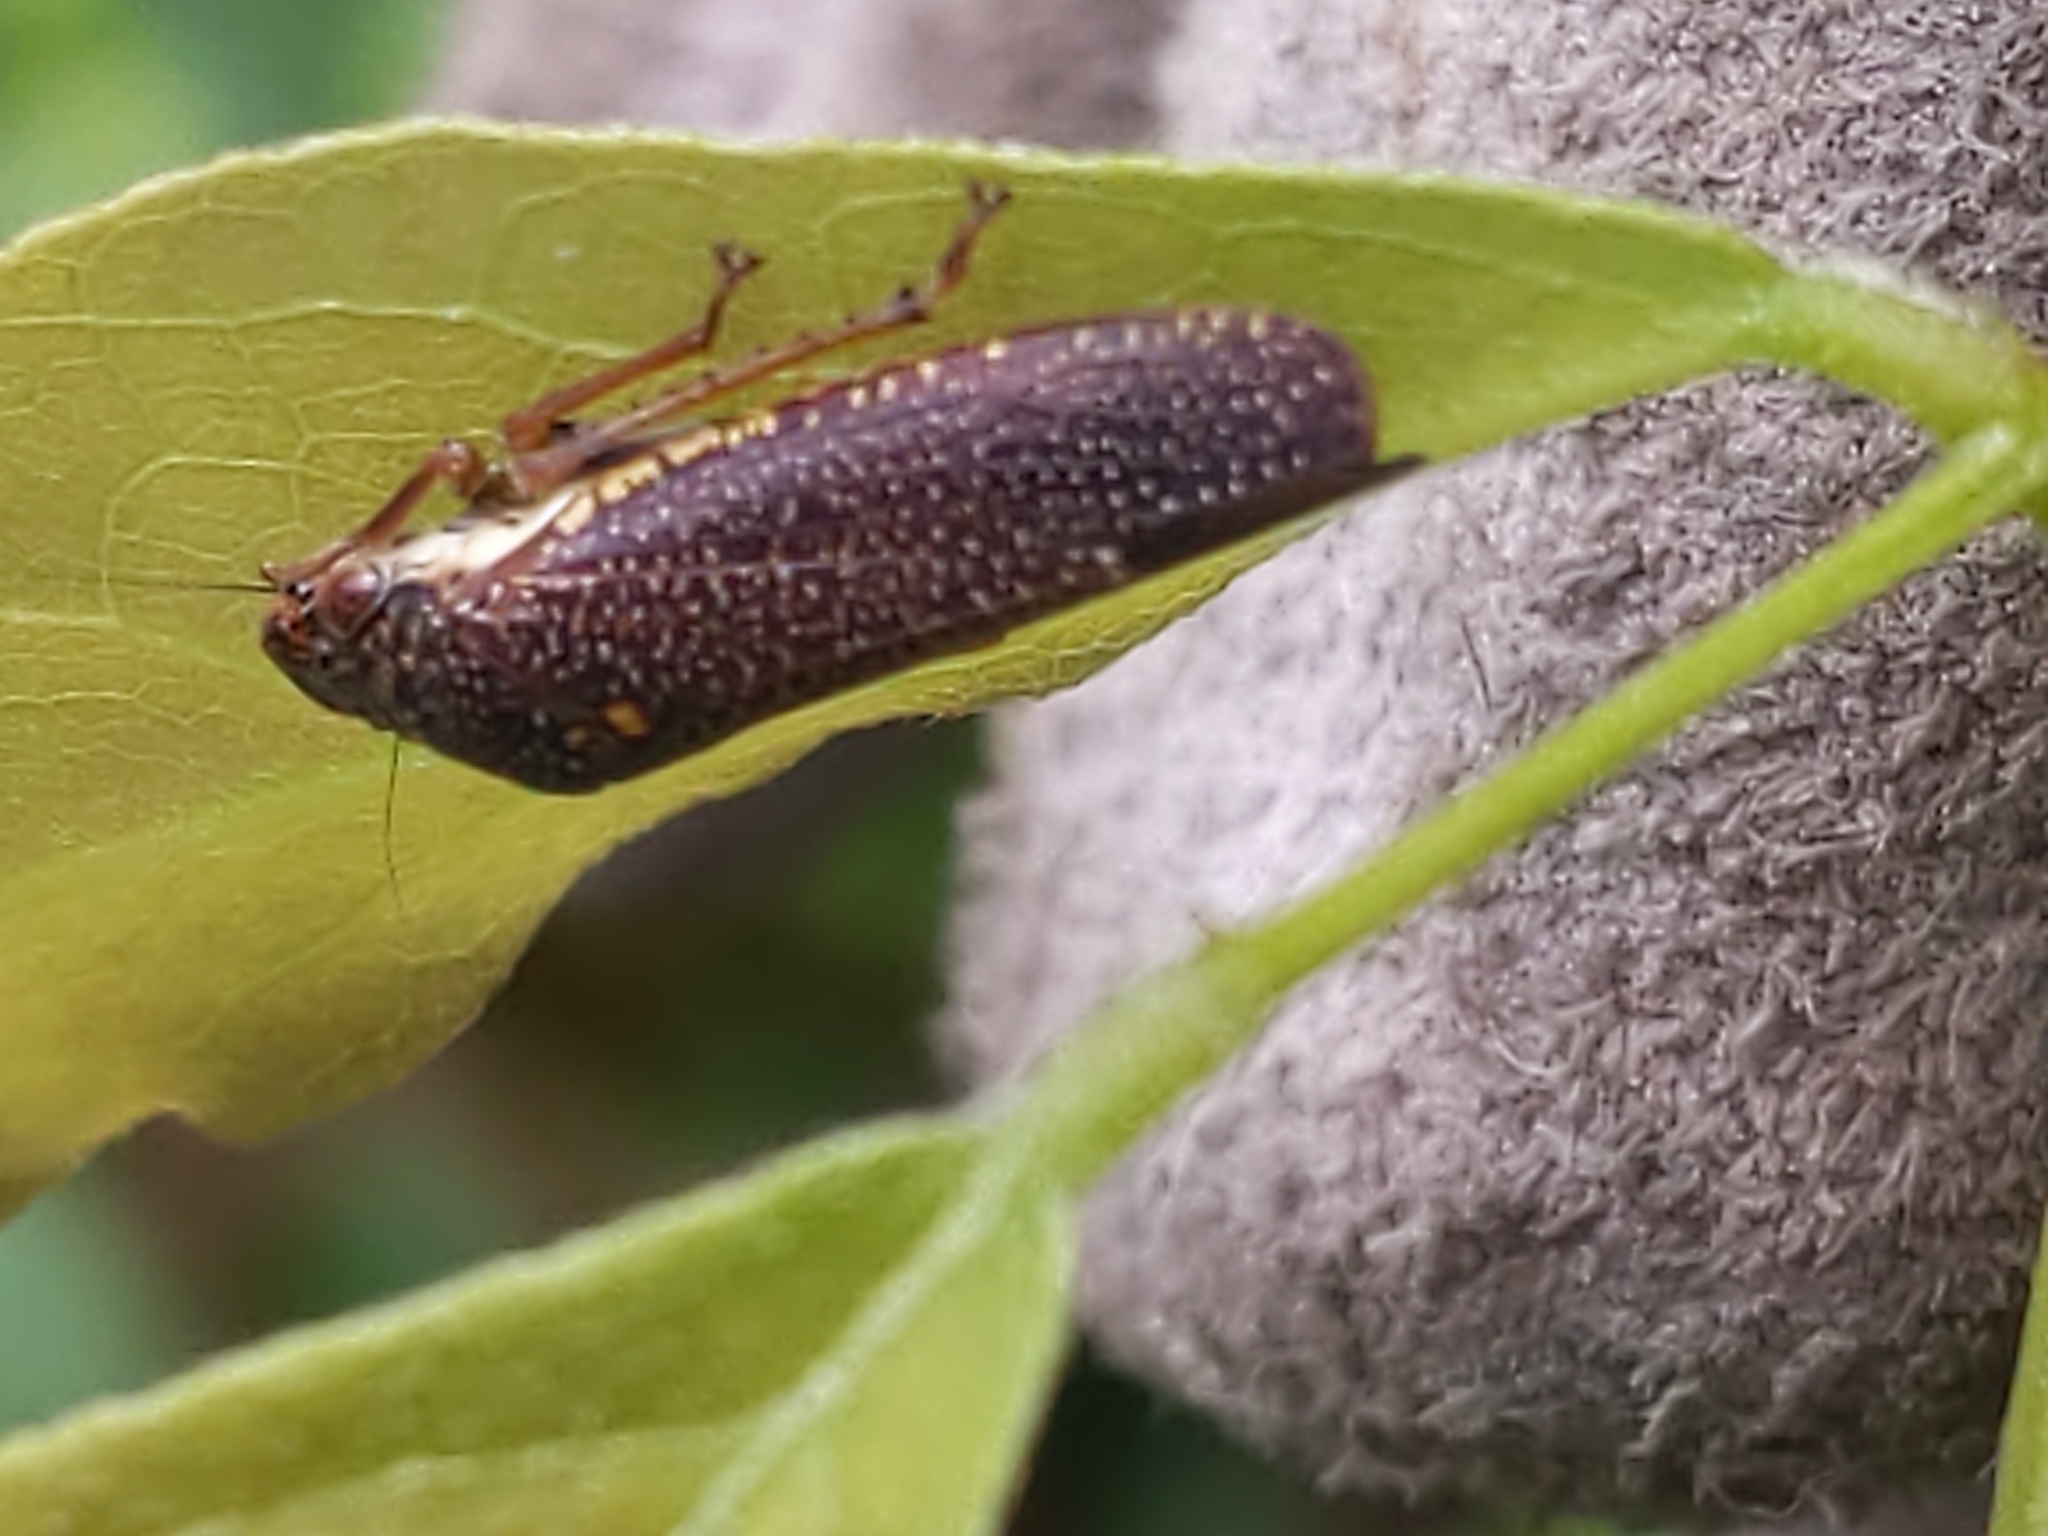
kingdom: Animalia
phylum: Arthropoda
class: Insecta
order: Hemiptera
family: Cicadellidae
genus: Paraulacizes
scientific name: Paraulacizes irrorata
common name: Speckled sharpshooter
